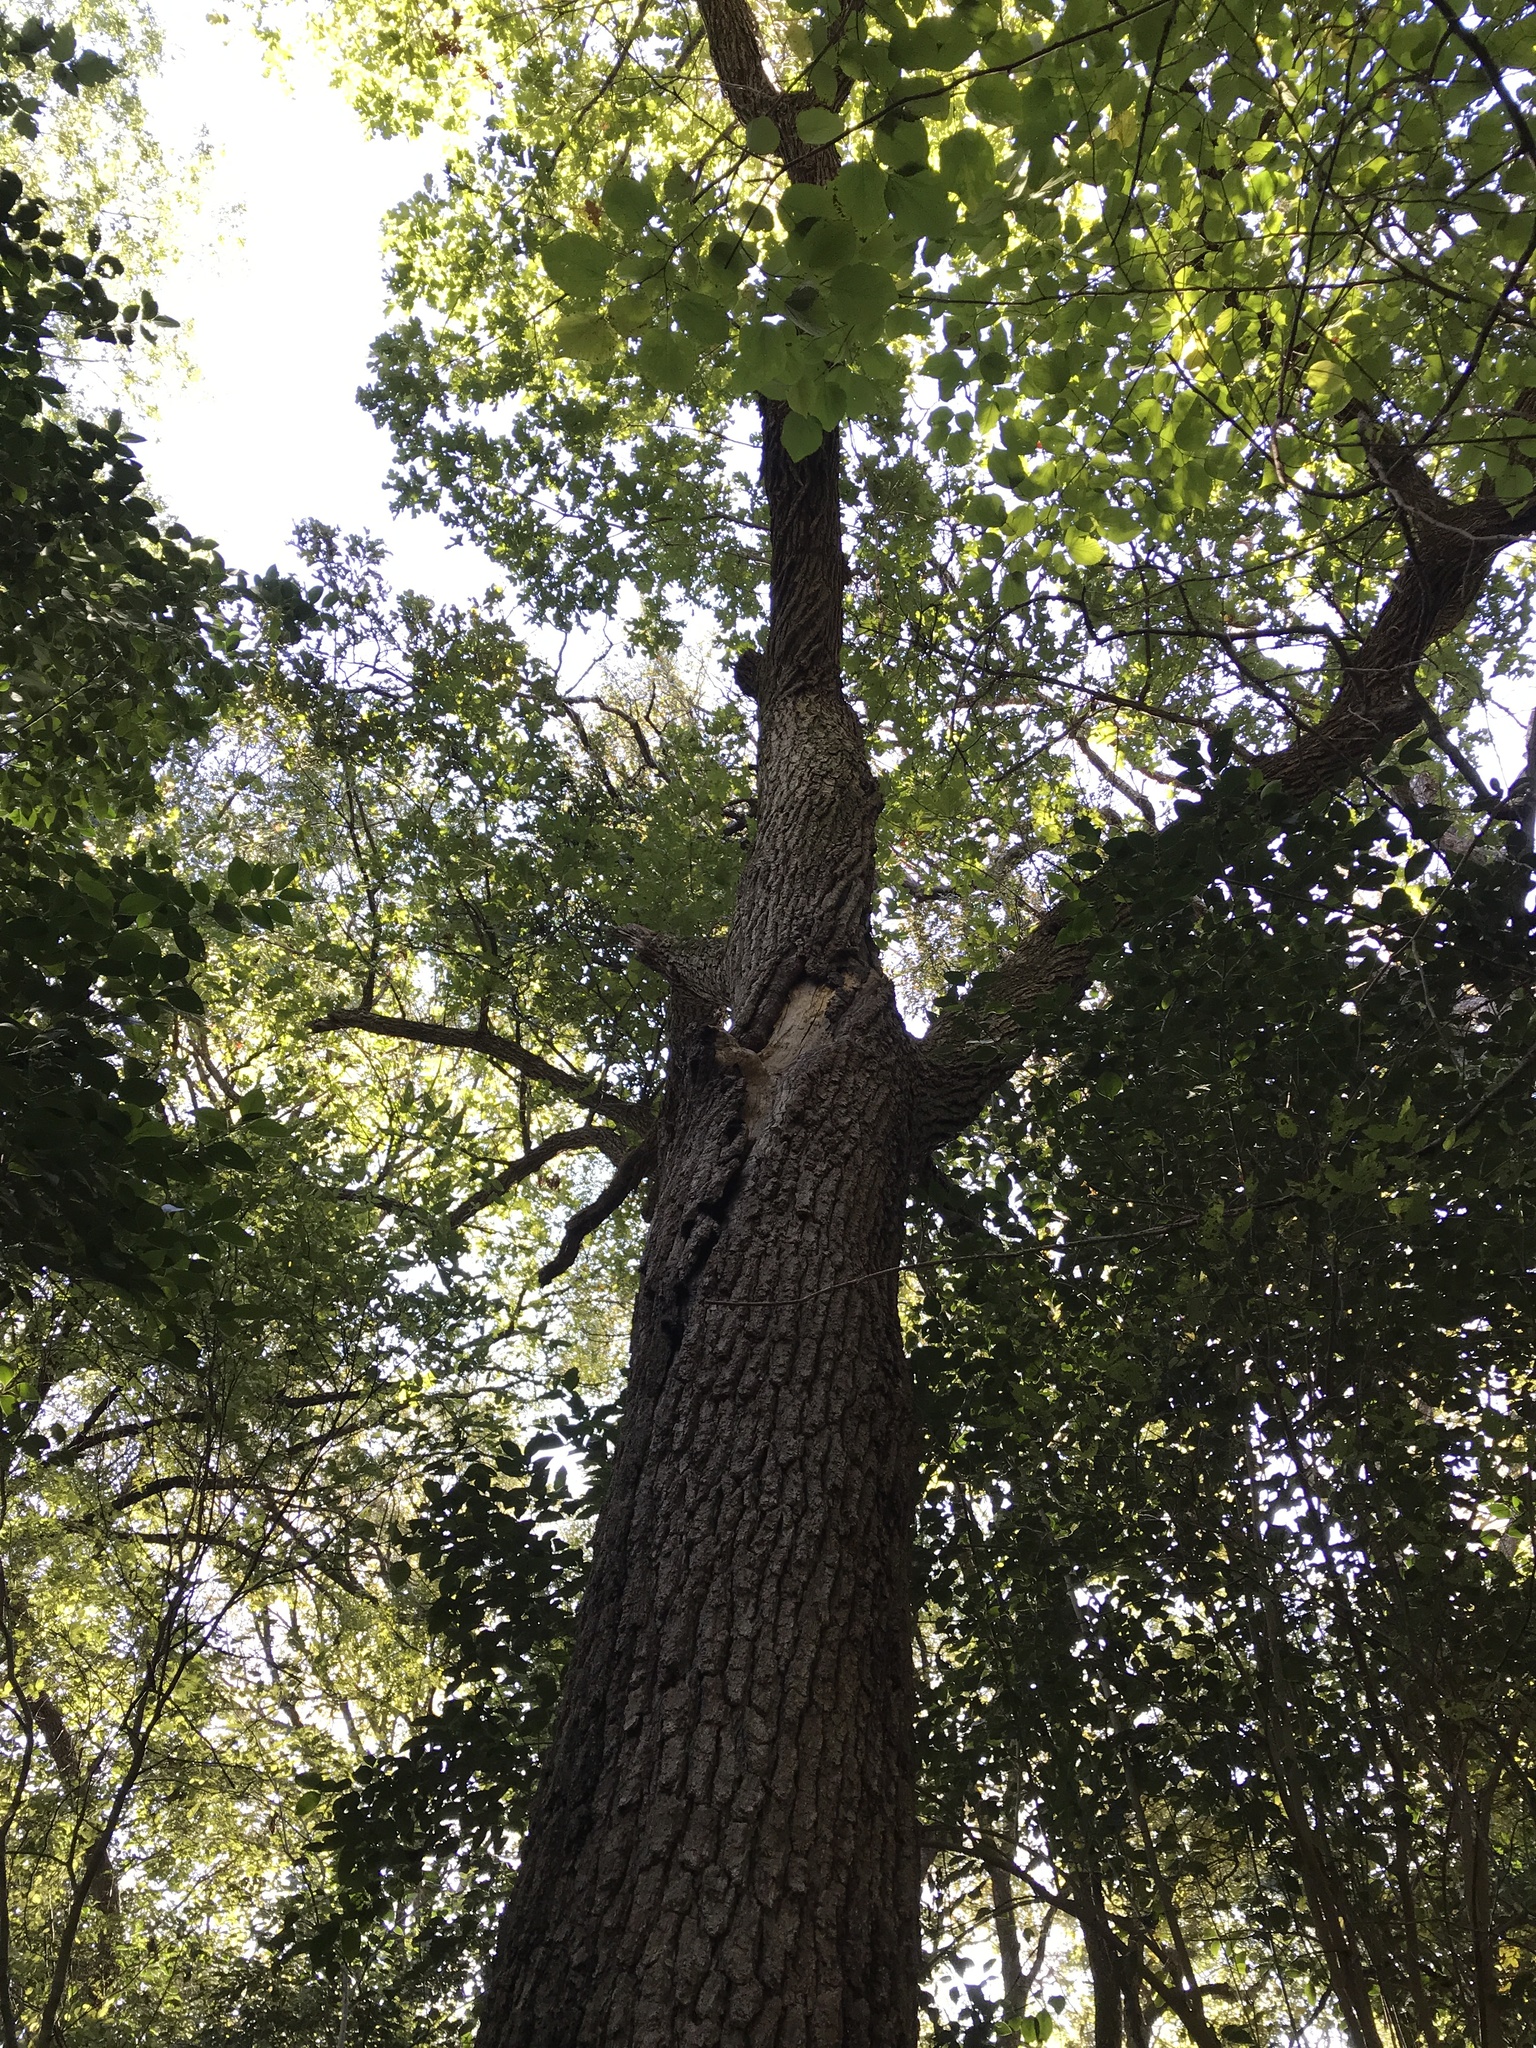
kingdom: Plantae
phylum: Tracheophyta
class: Magnoliopsida
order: Fagales
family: Fagaceae
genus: Quercus
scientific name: Quercus macrocarpa
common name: Bur oak
